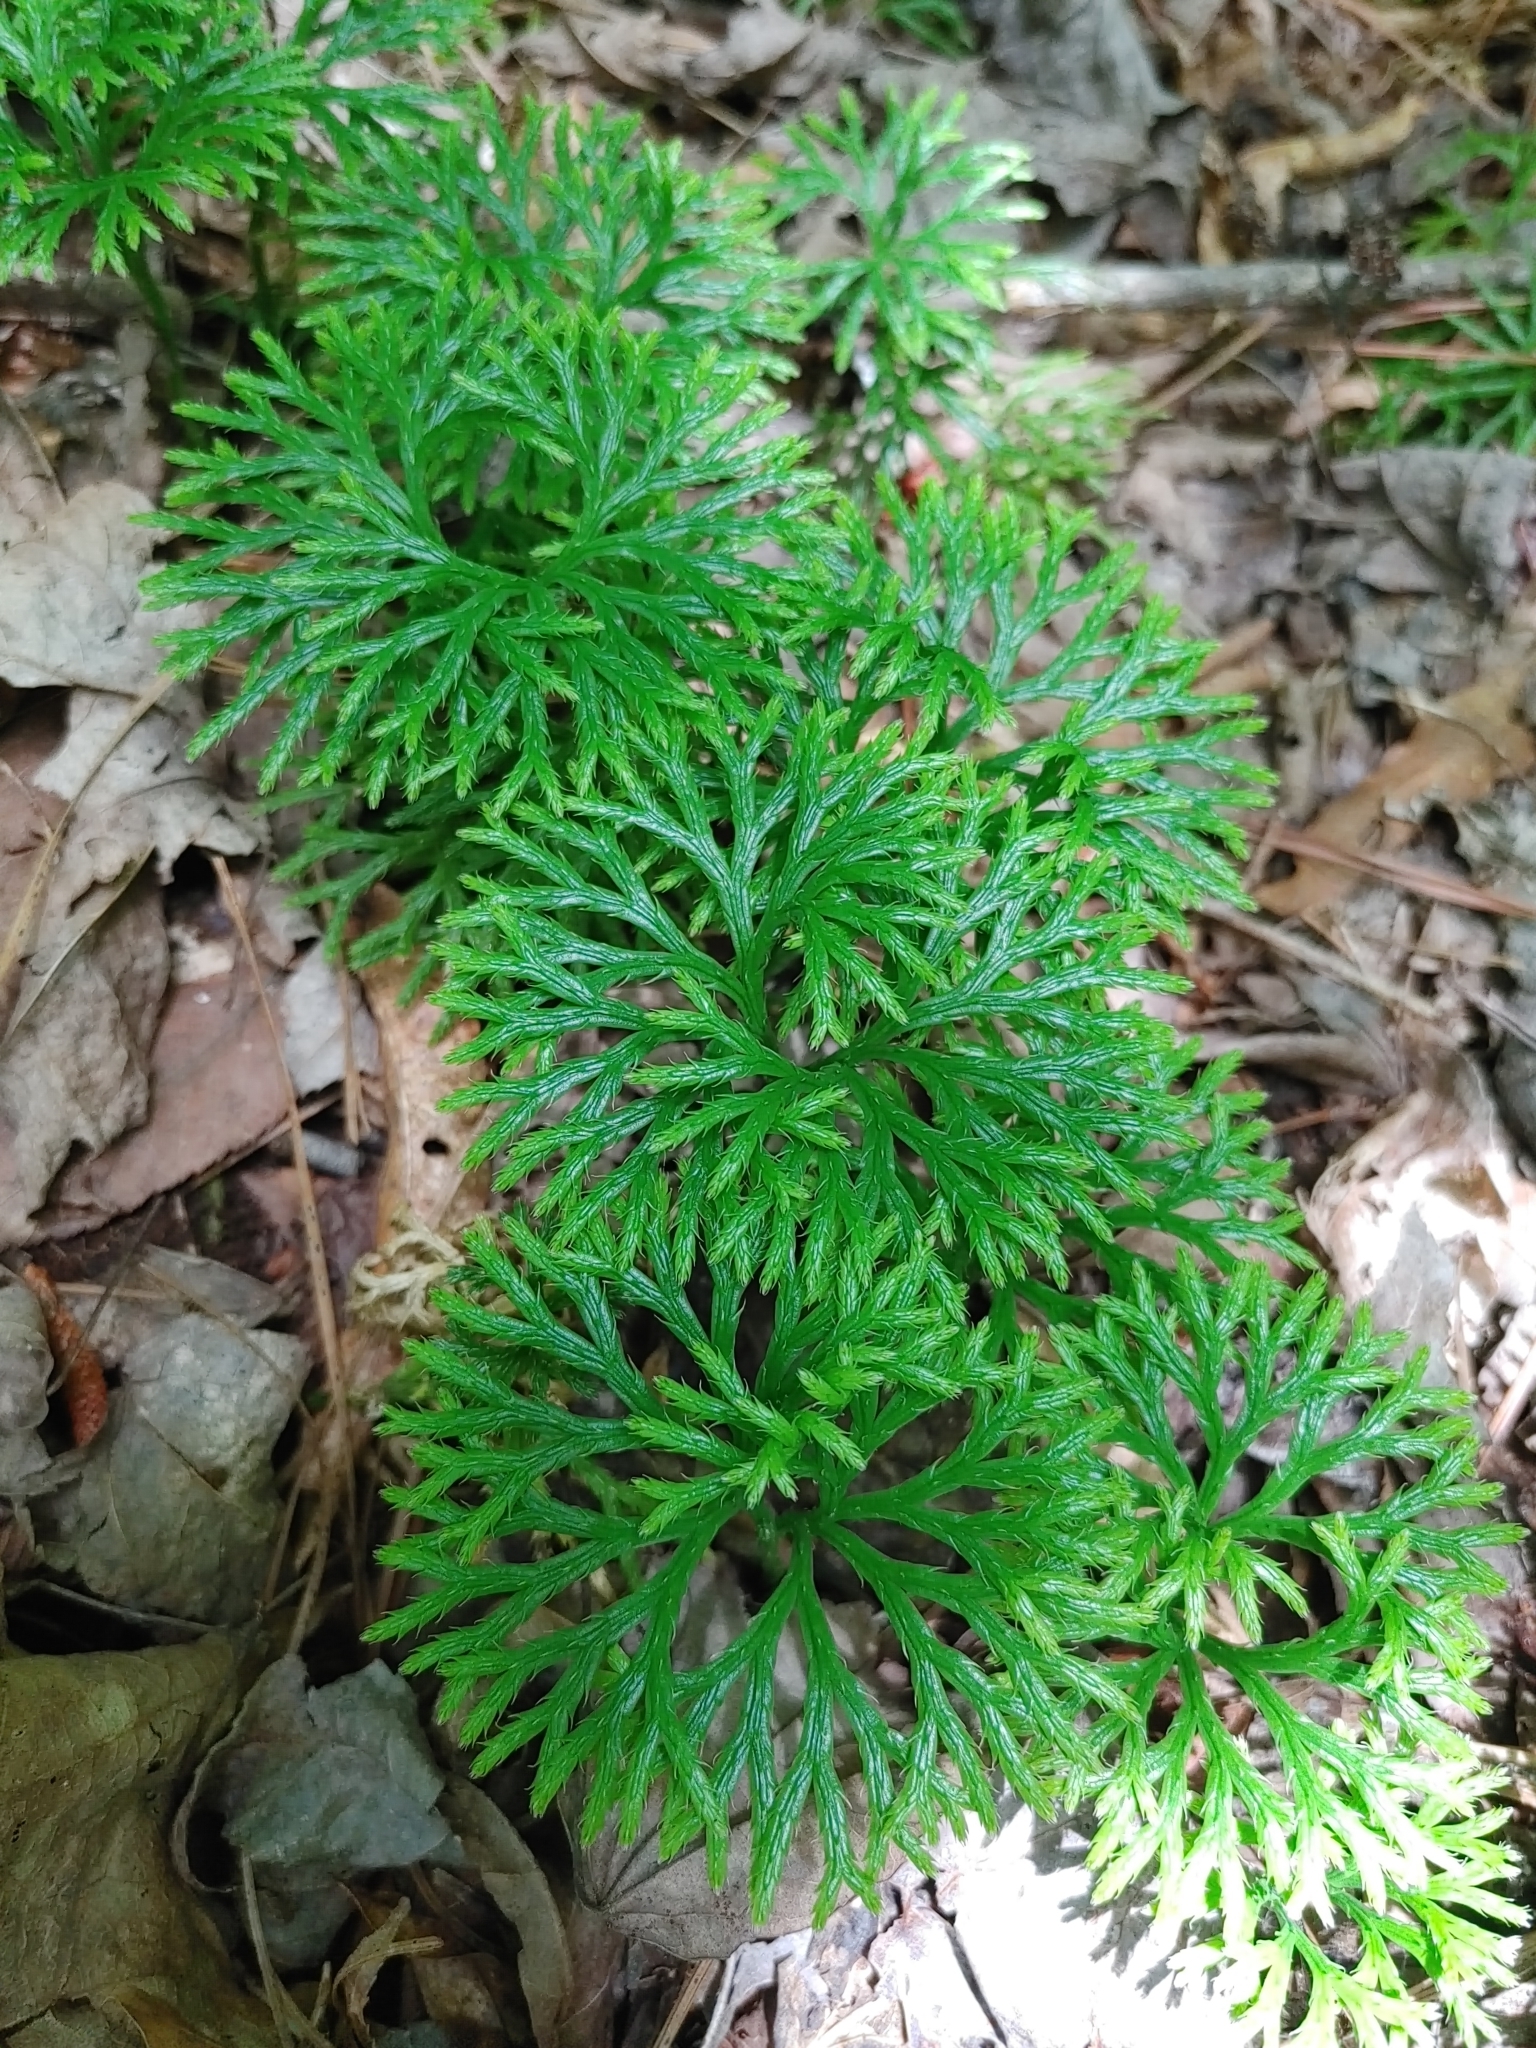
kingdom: Plantae
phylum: Tracheophyta
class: Lycopodiopsida
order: Lycopodiales
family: Lycopodiaceae
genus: Diphasiastrum
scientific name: Diphasiastrum digitatum
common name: Southern running-pine
